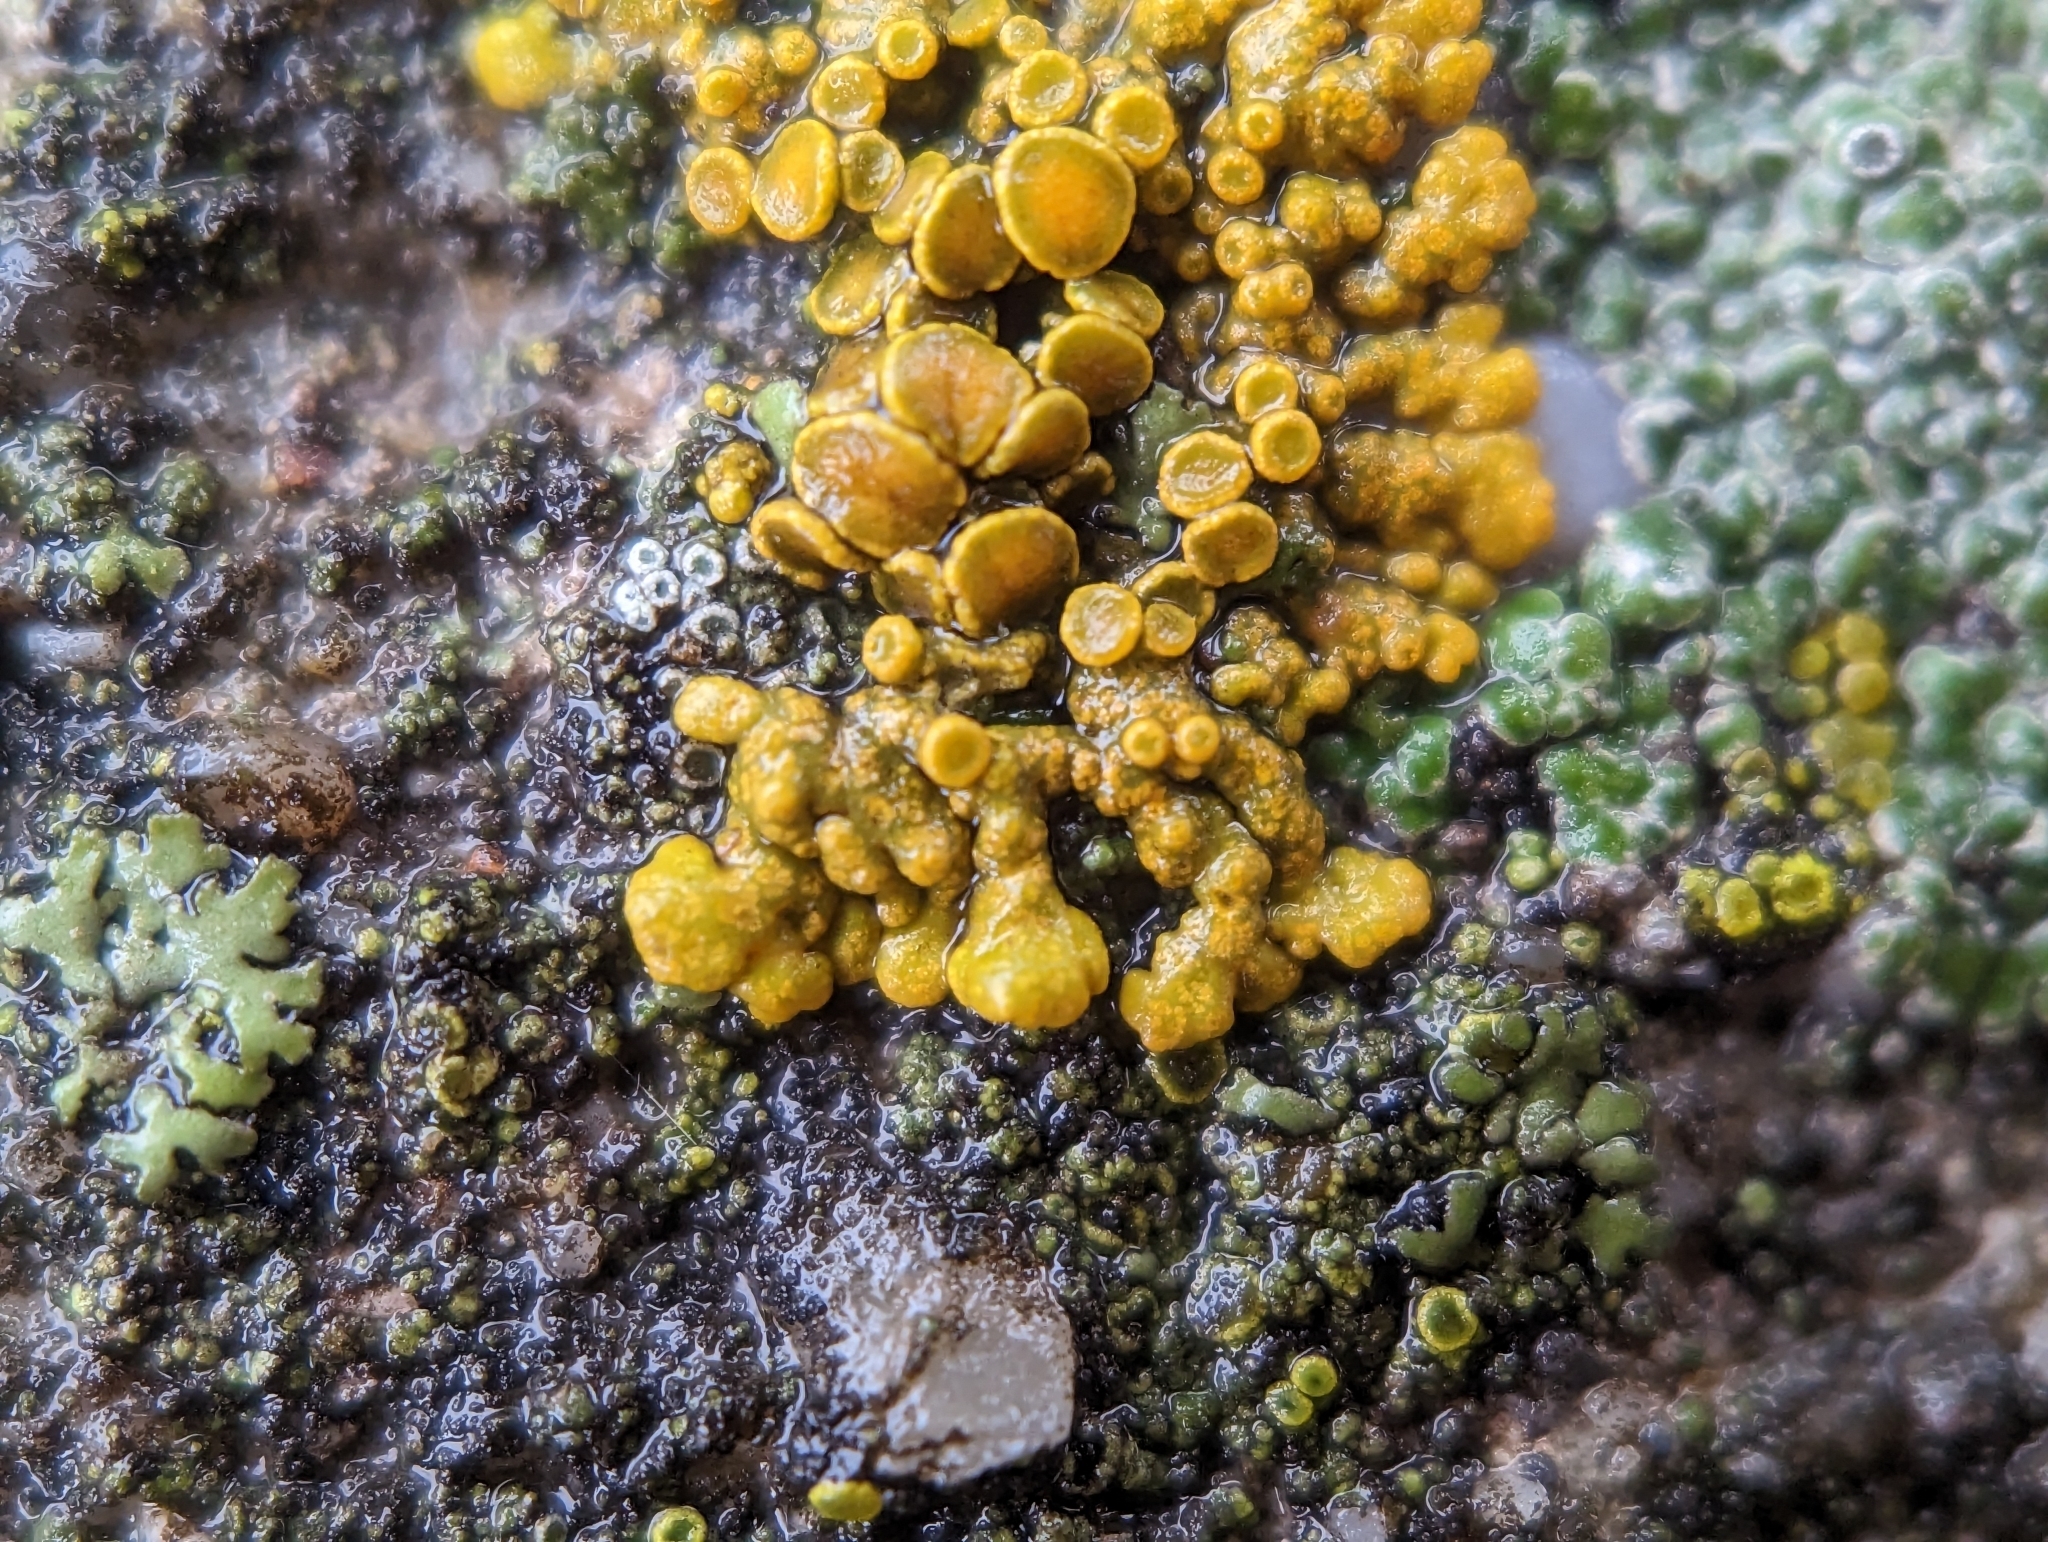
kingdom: Fungi
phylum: Ascomycota
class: Lecanoromycetes
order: Teloschistales
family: Teloschistaceae
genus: Xanthoria
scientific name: Xanthoria elegans
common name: Elegant sunburst lichen
